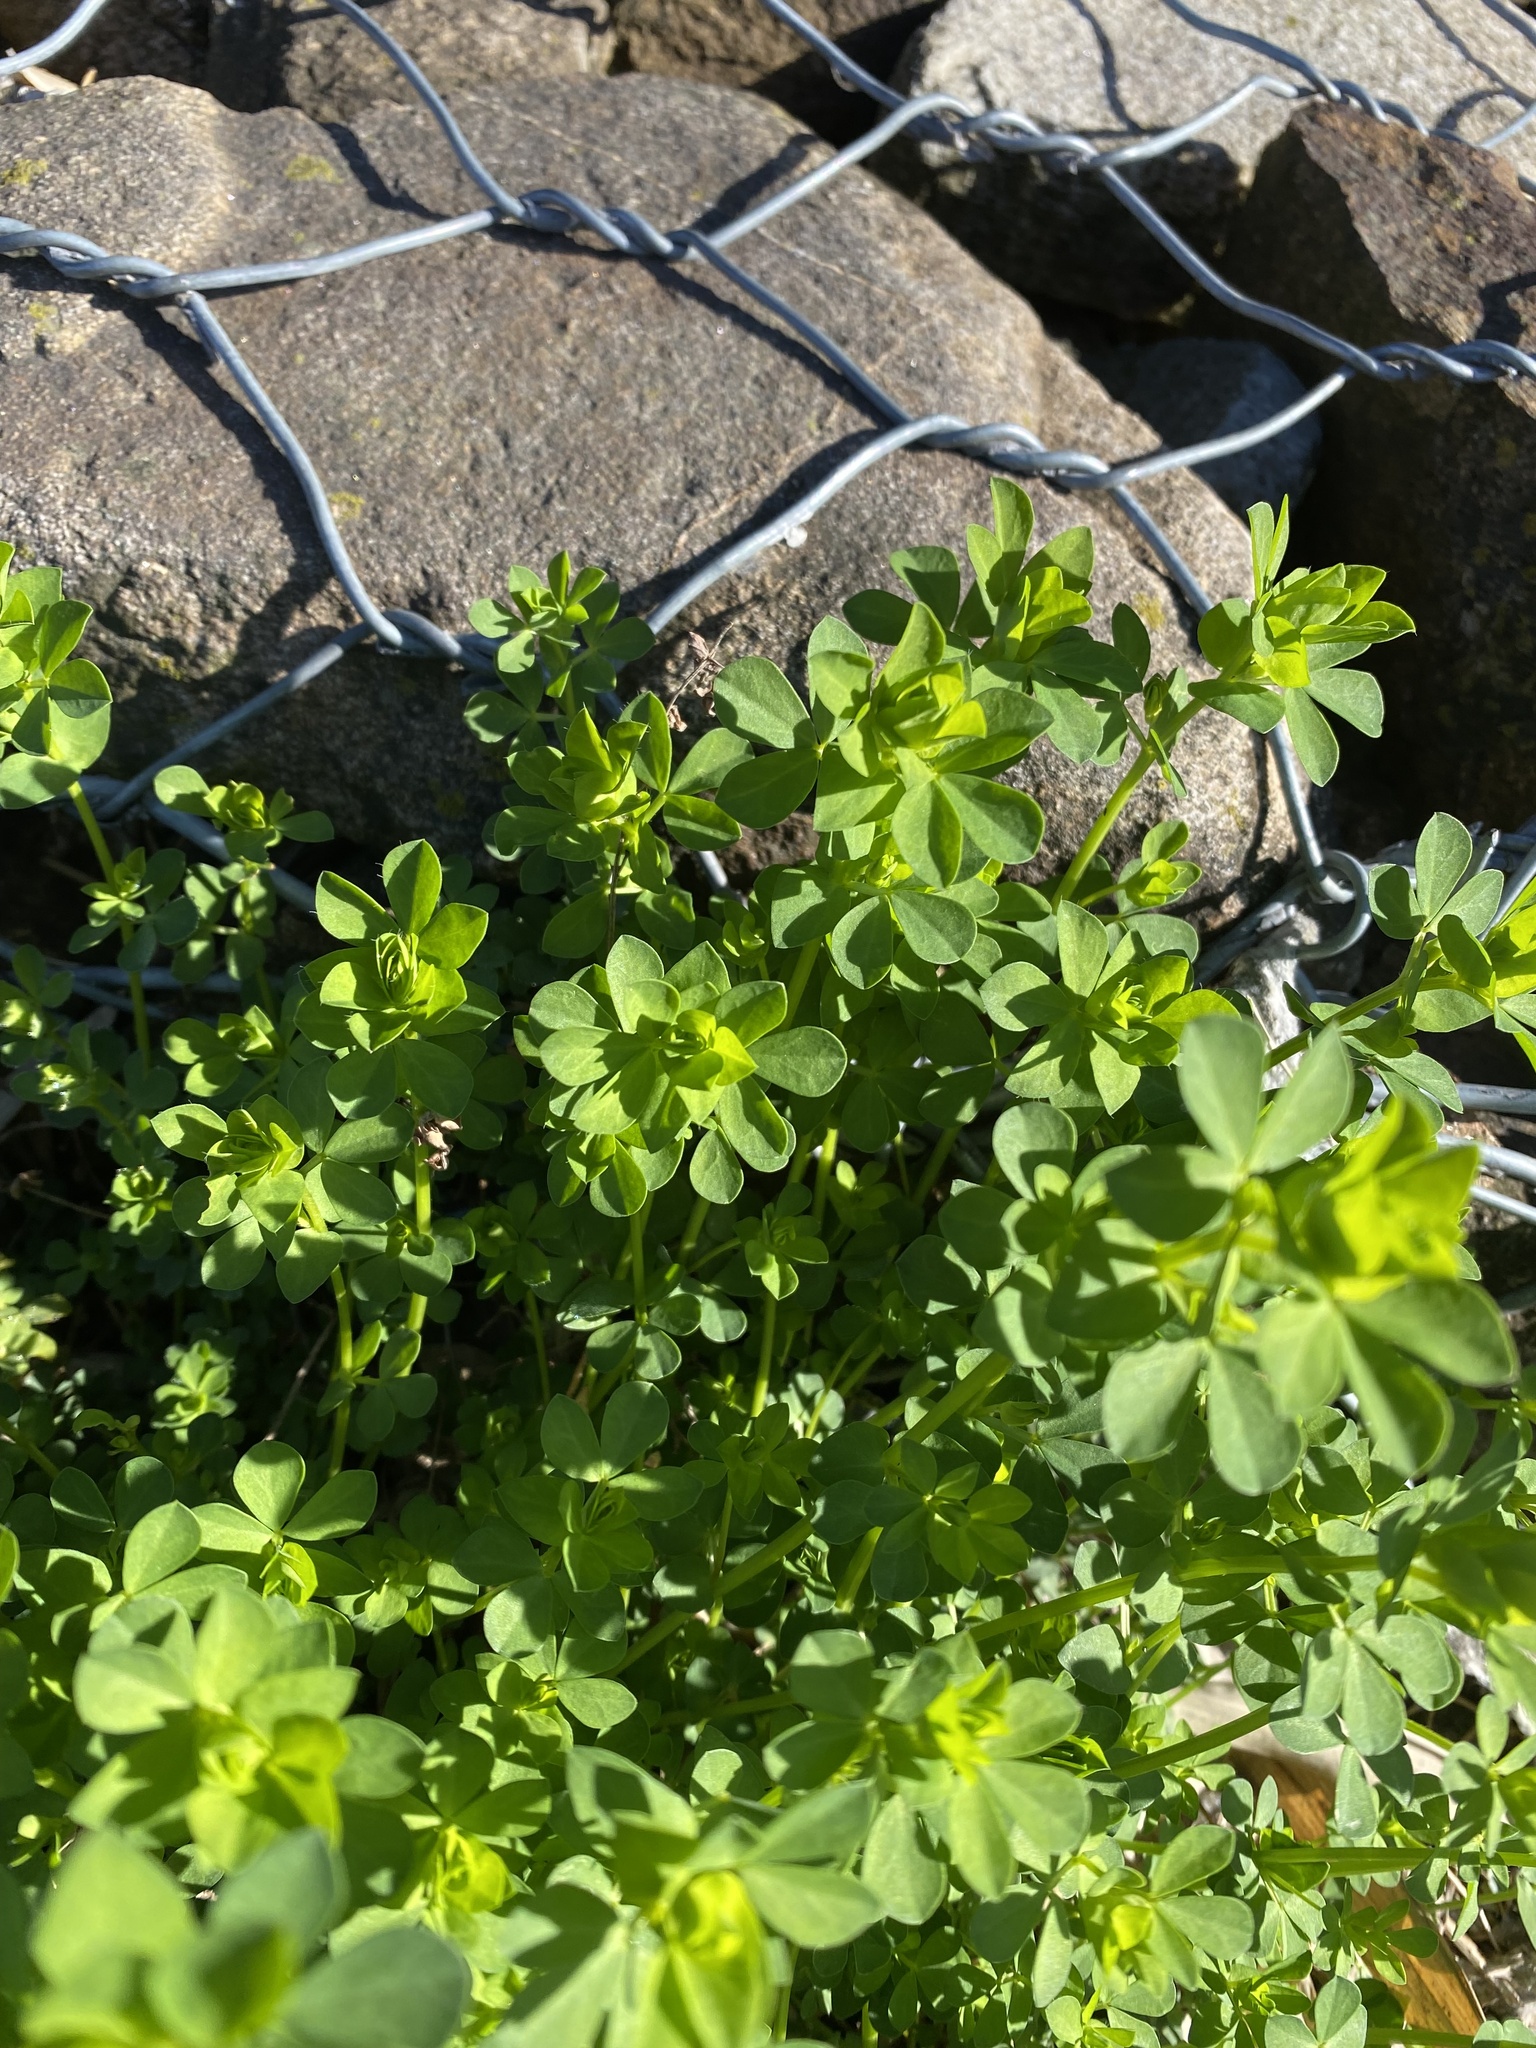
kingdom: Plantae
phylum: Tracheophyta
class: Magnoliopsida
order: Fabales
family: Fabaceae
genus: Lotus
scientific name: Lotus corniculatus
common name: Common bird's-foot-trefoil
